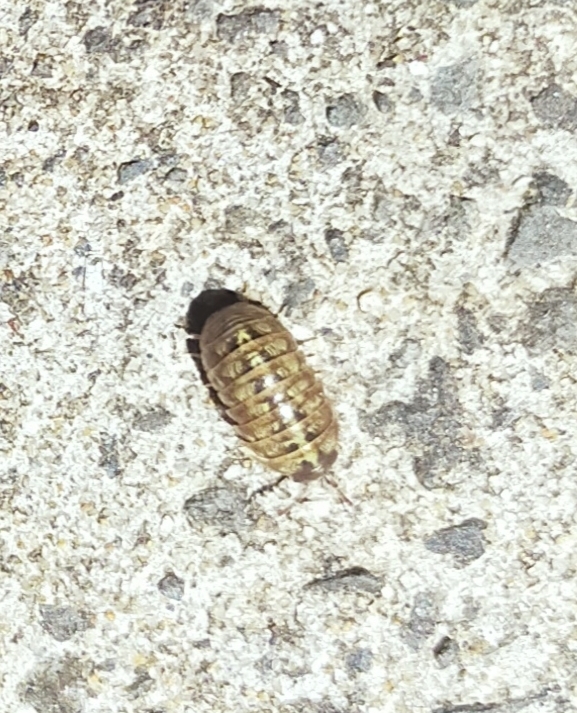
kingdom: Animalia
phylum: Arthropoda
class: Malacostraca
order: Isopoda
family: Armadillidiidae
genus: Armadillidium
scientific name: Armadillidium
